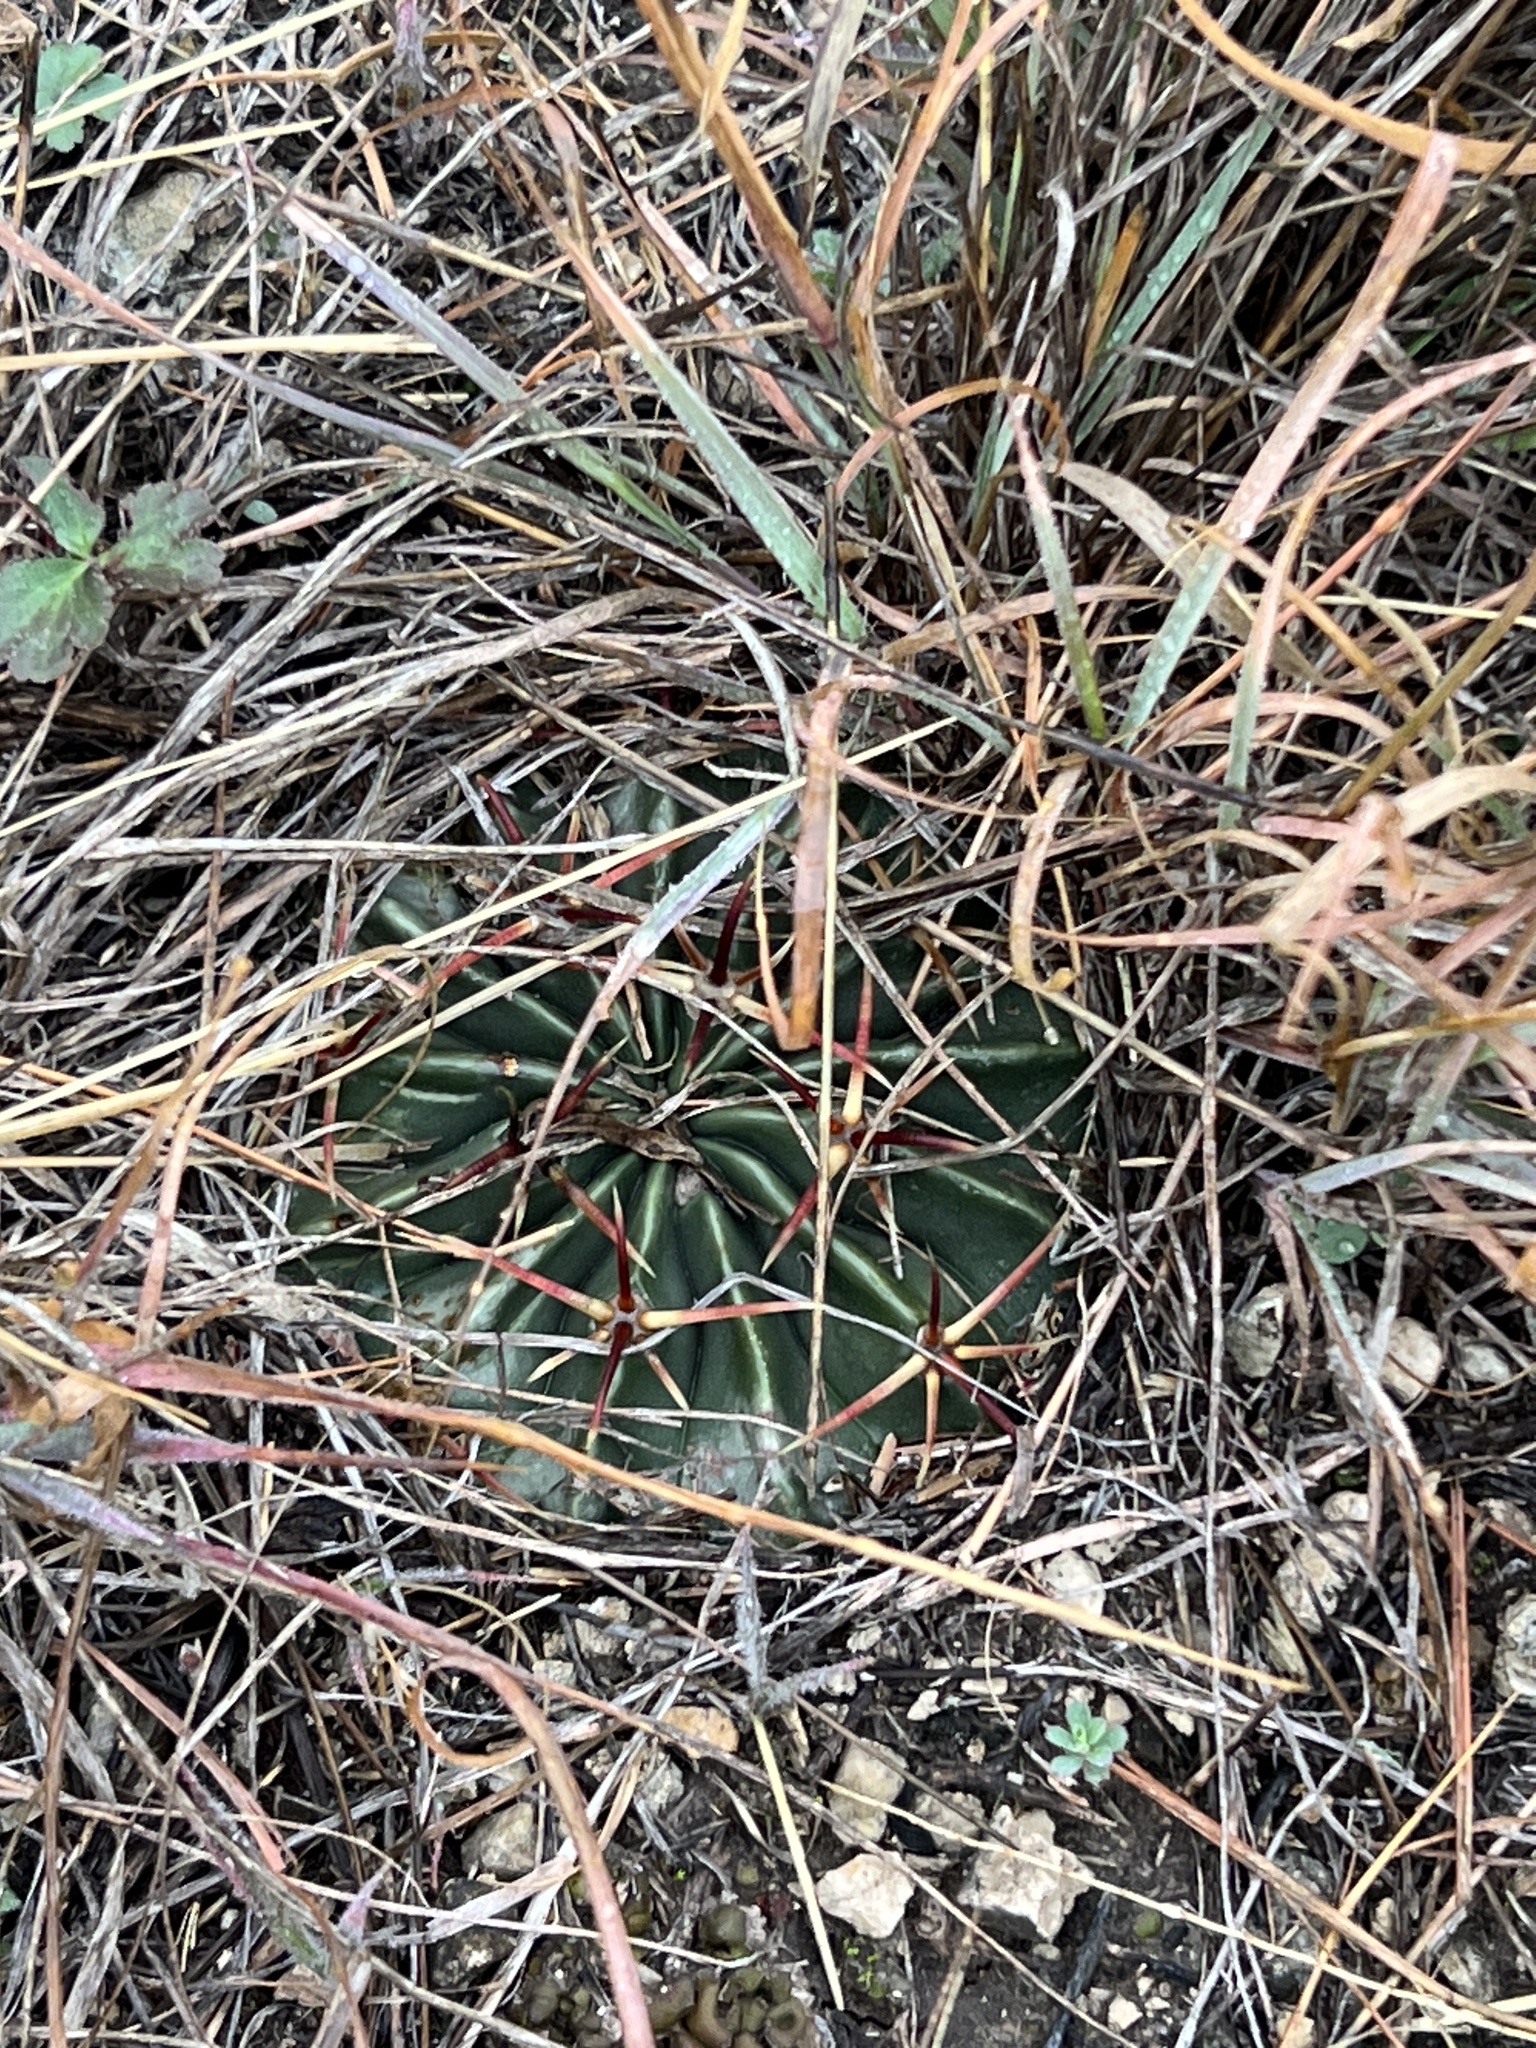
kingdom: Plantae
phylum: Tracheophyta
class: Magnoliopsida
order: Caryophyllales
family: Cactaceae
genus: Echinocactus
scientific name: Echinocactus texensis
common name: Devil's pincushion
